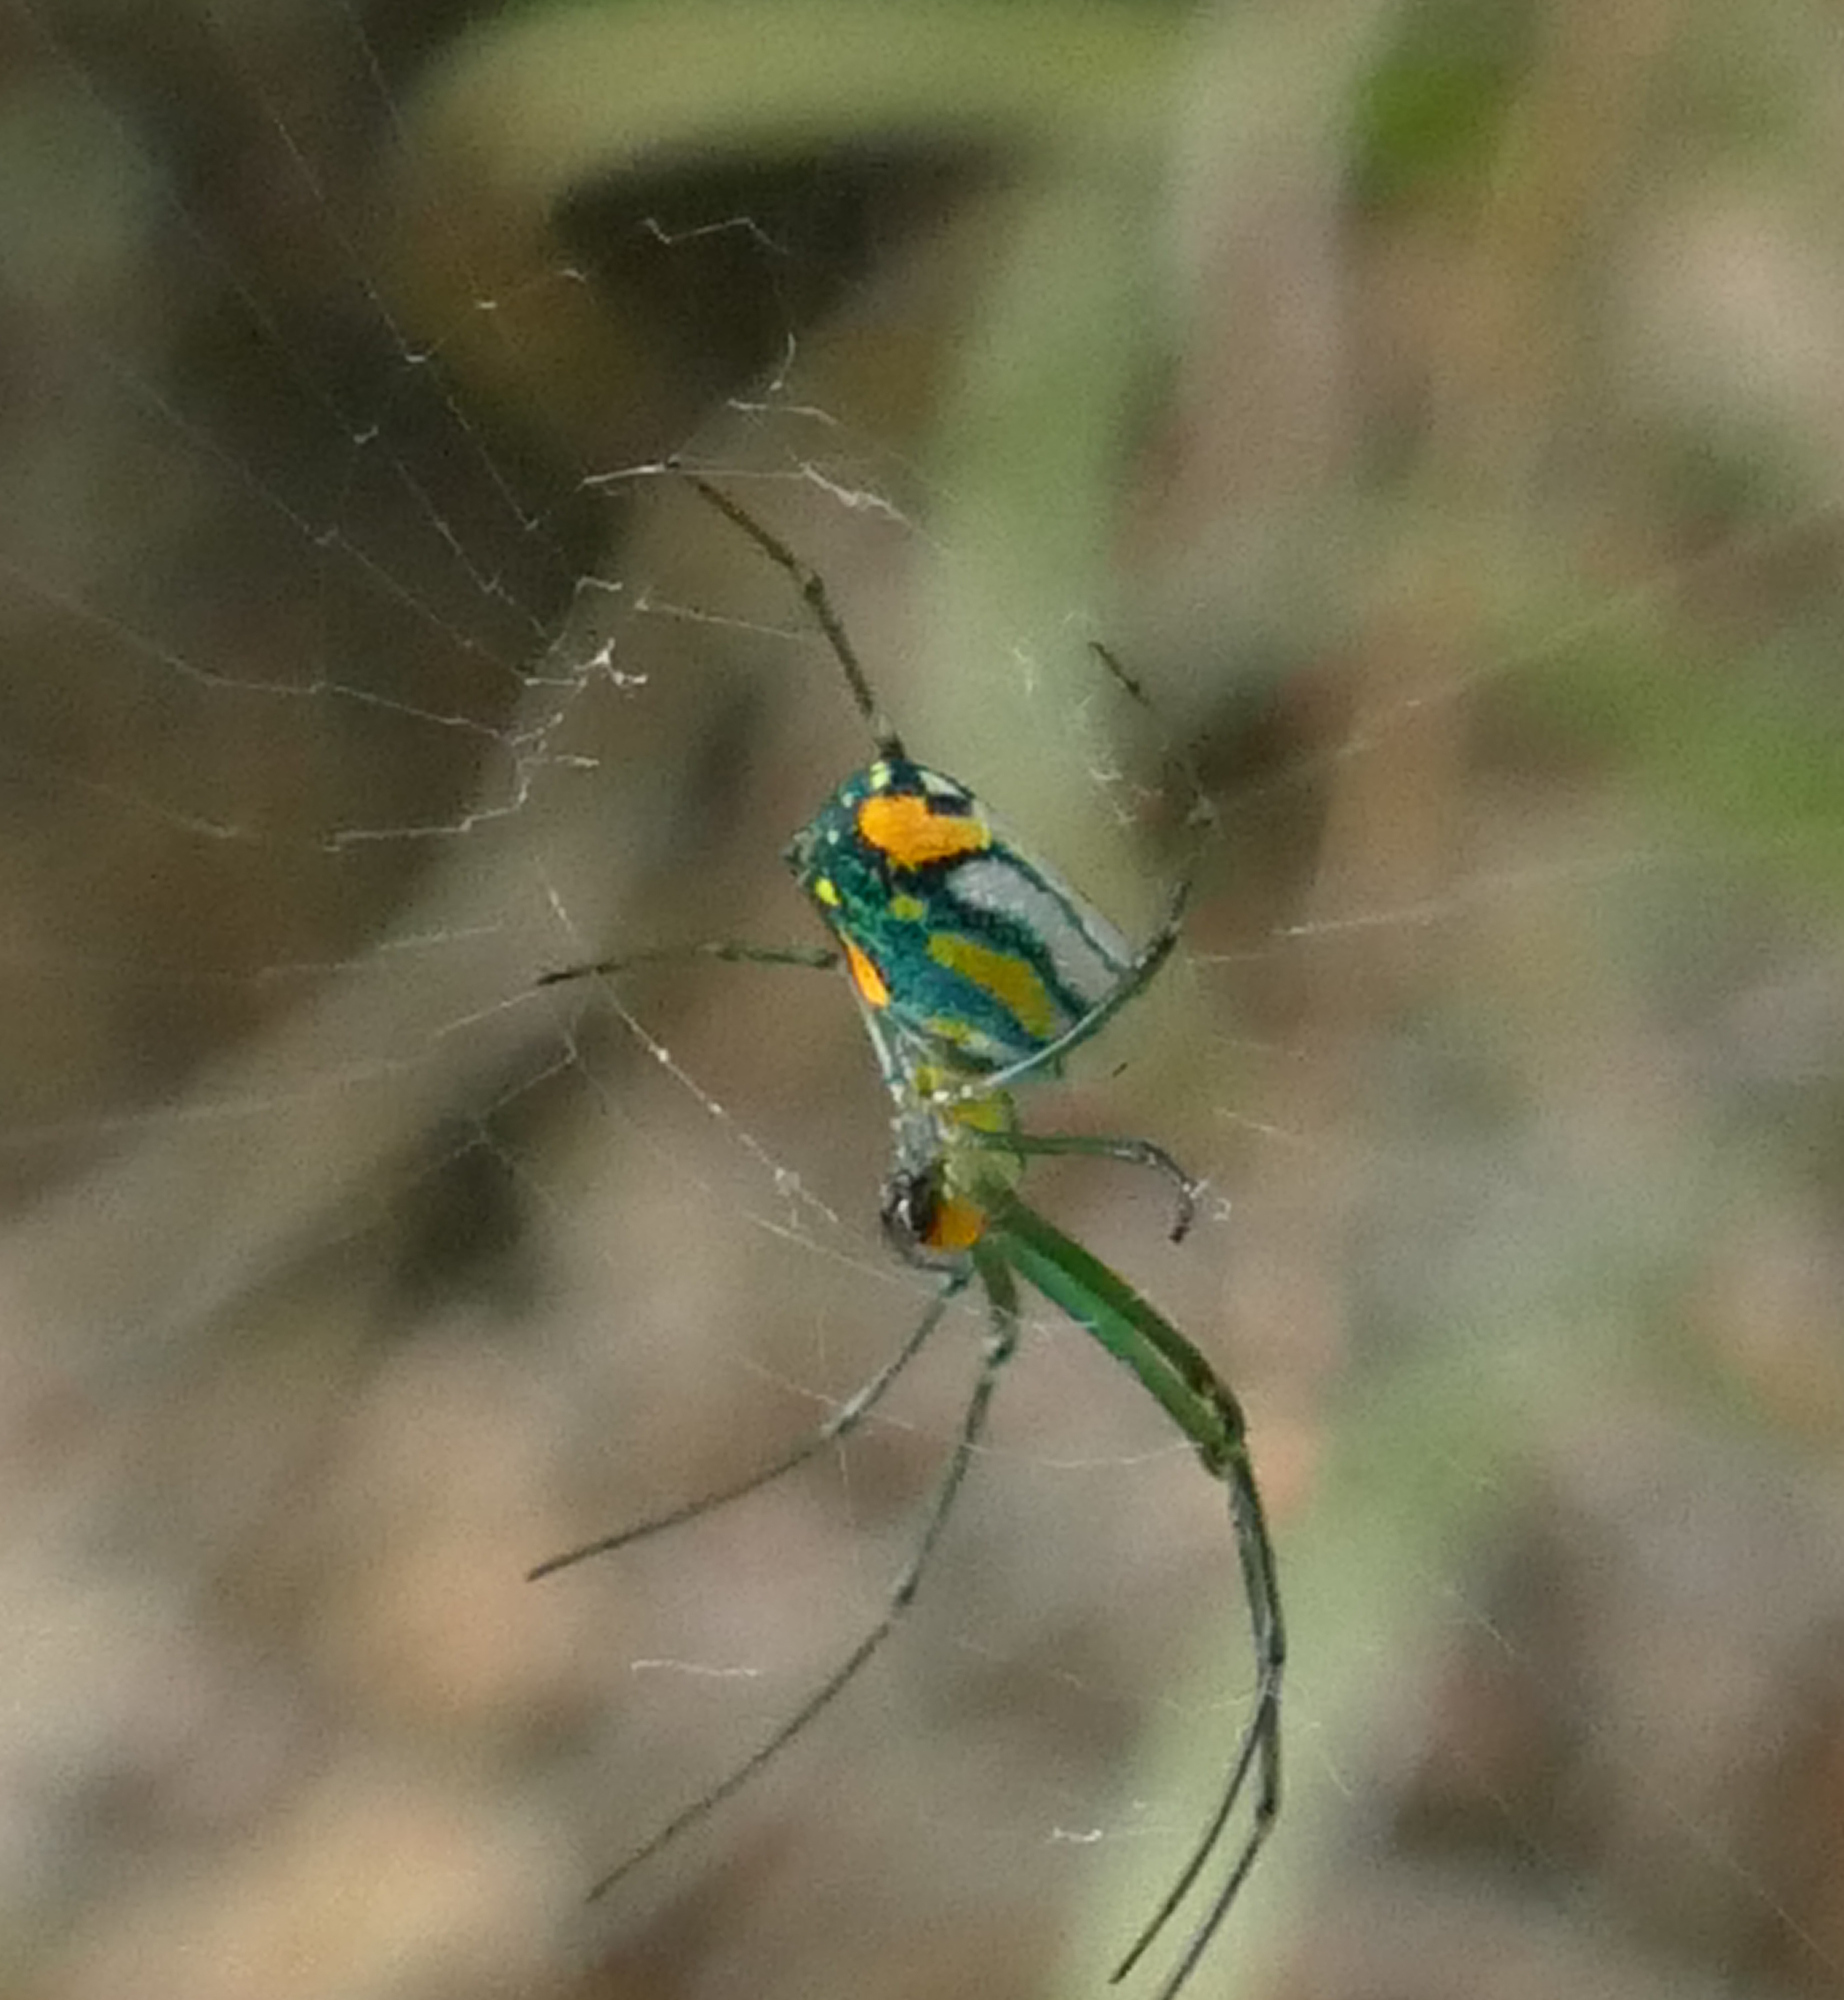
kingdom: Animalia
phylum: Arthropoda
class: Arachnida
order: Araneae
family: Tetragnathidae
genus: Leucauge
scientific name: Leucauge argyrobapta
